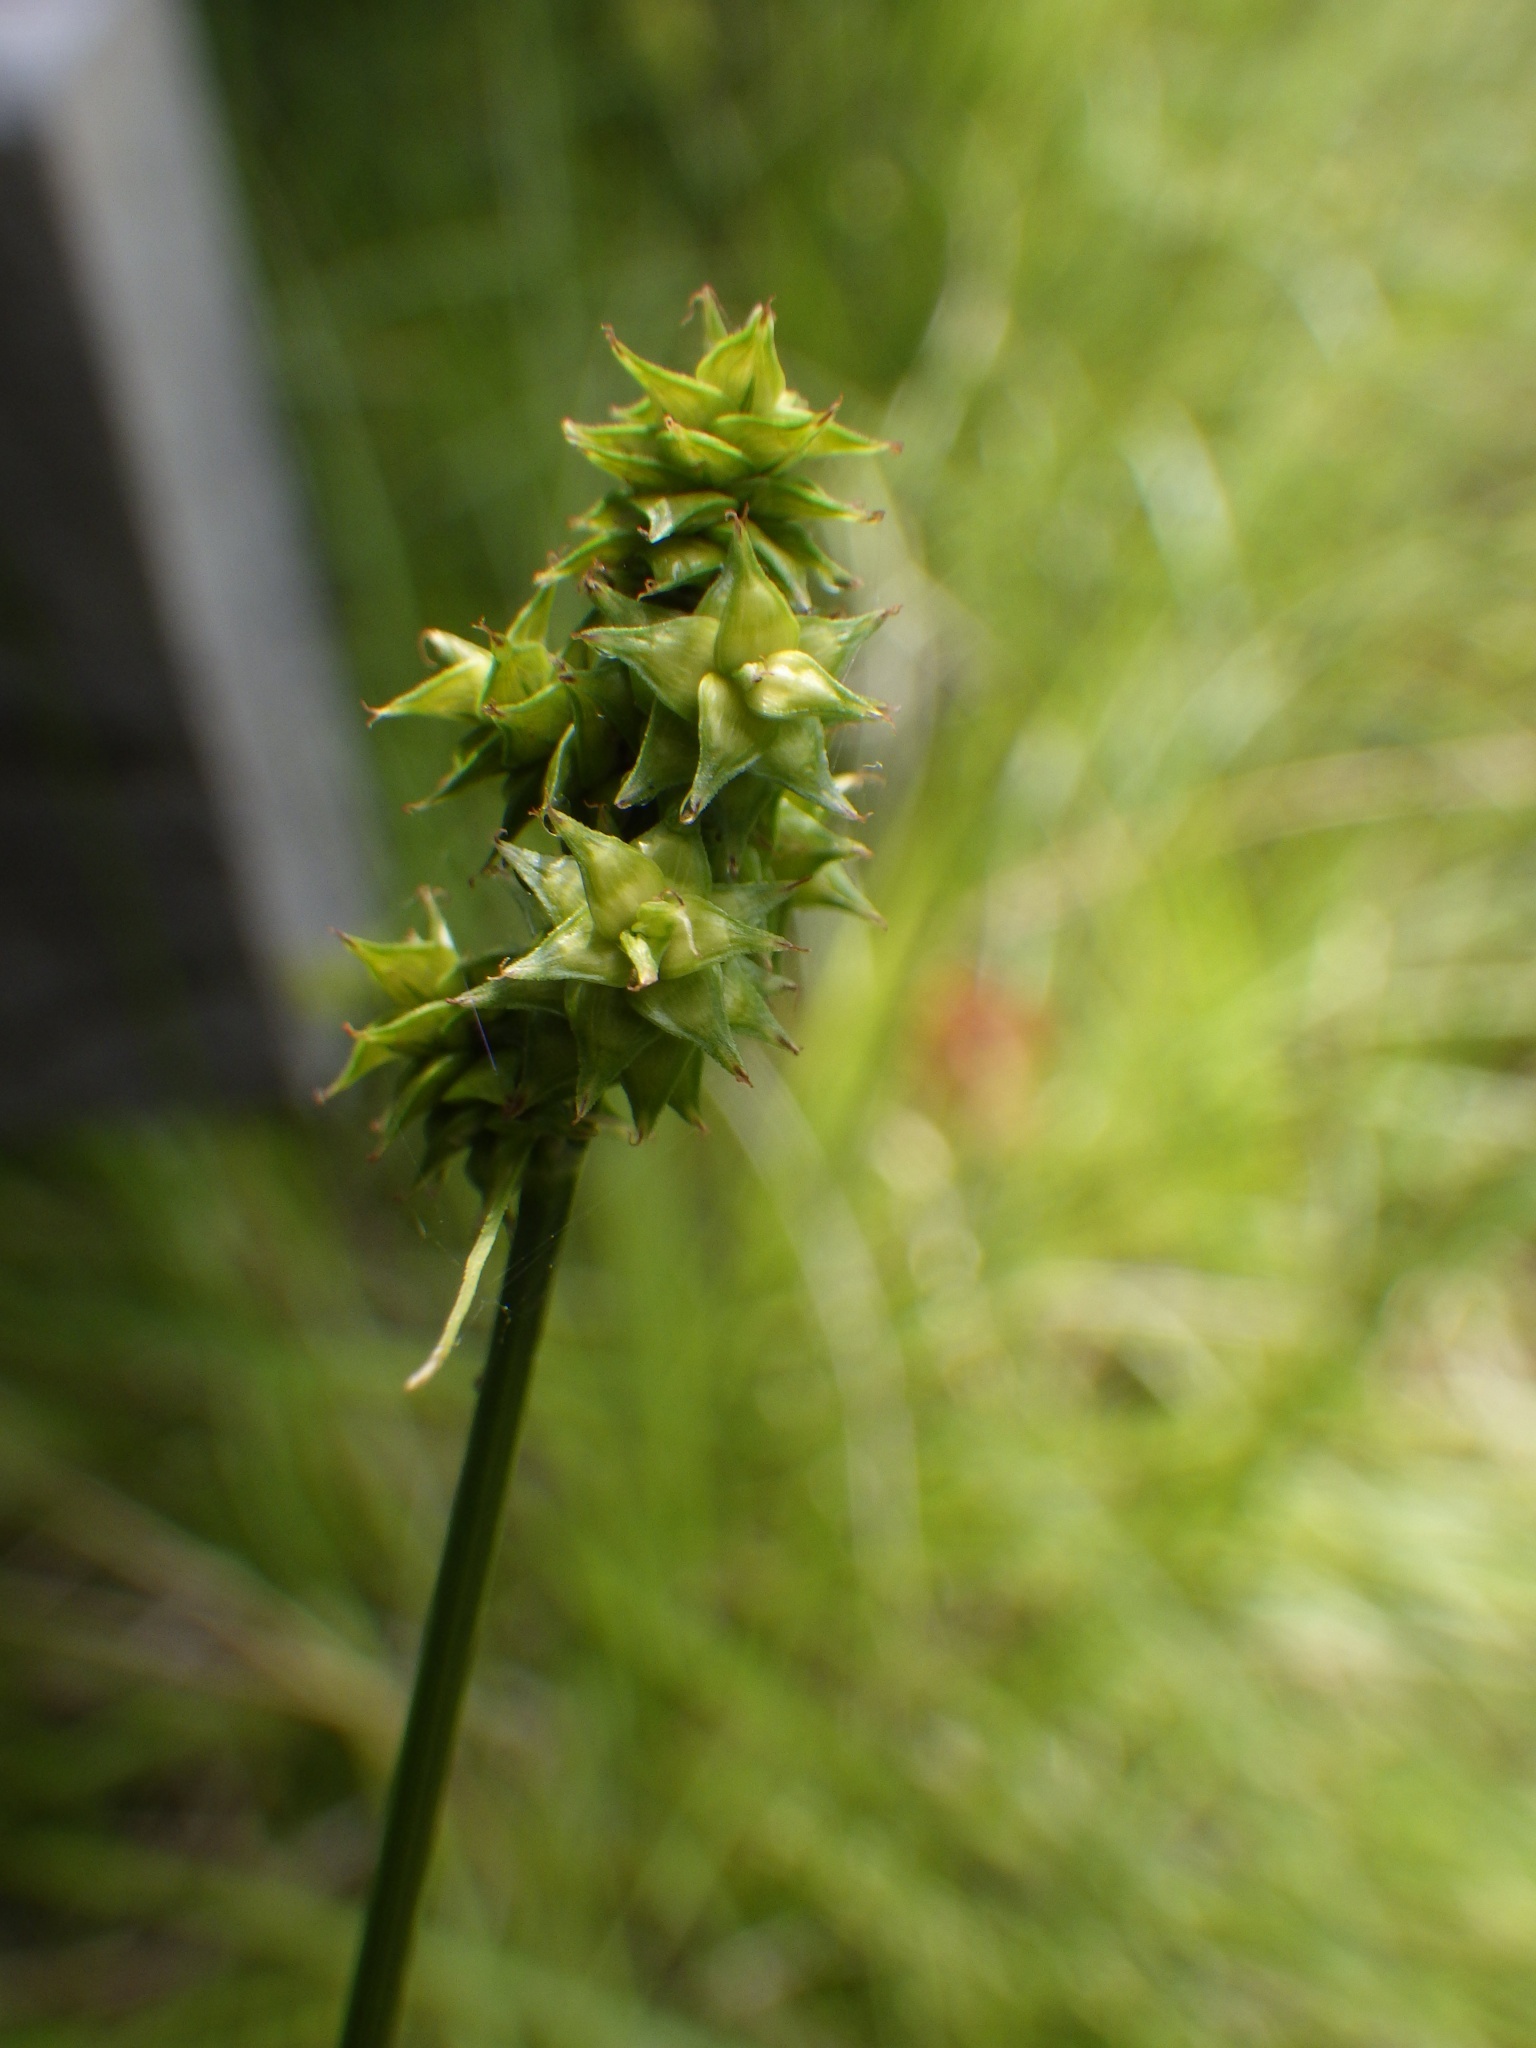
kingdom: Plantae
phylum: Tracheophyta
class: Liliopsida
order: Poales
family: Cyperaceae
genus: Carex
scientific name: Carex atlantica
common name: Atlantic sedge
